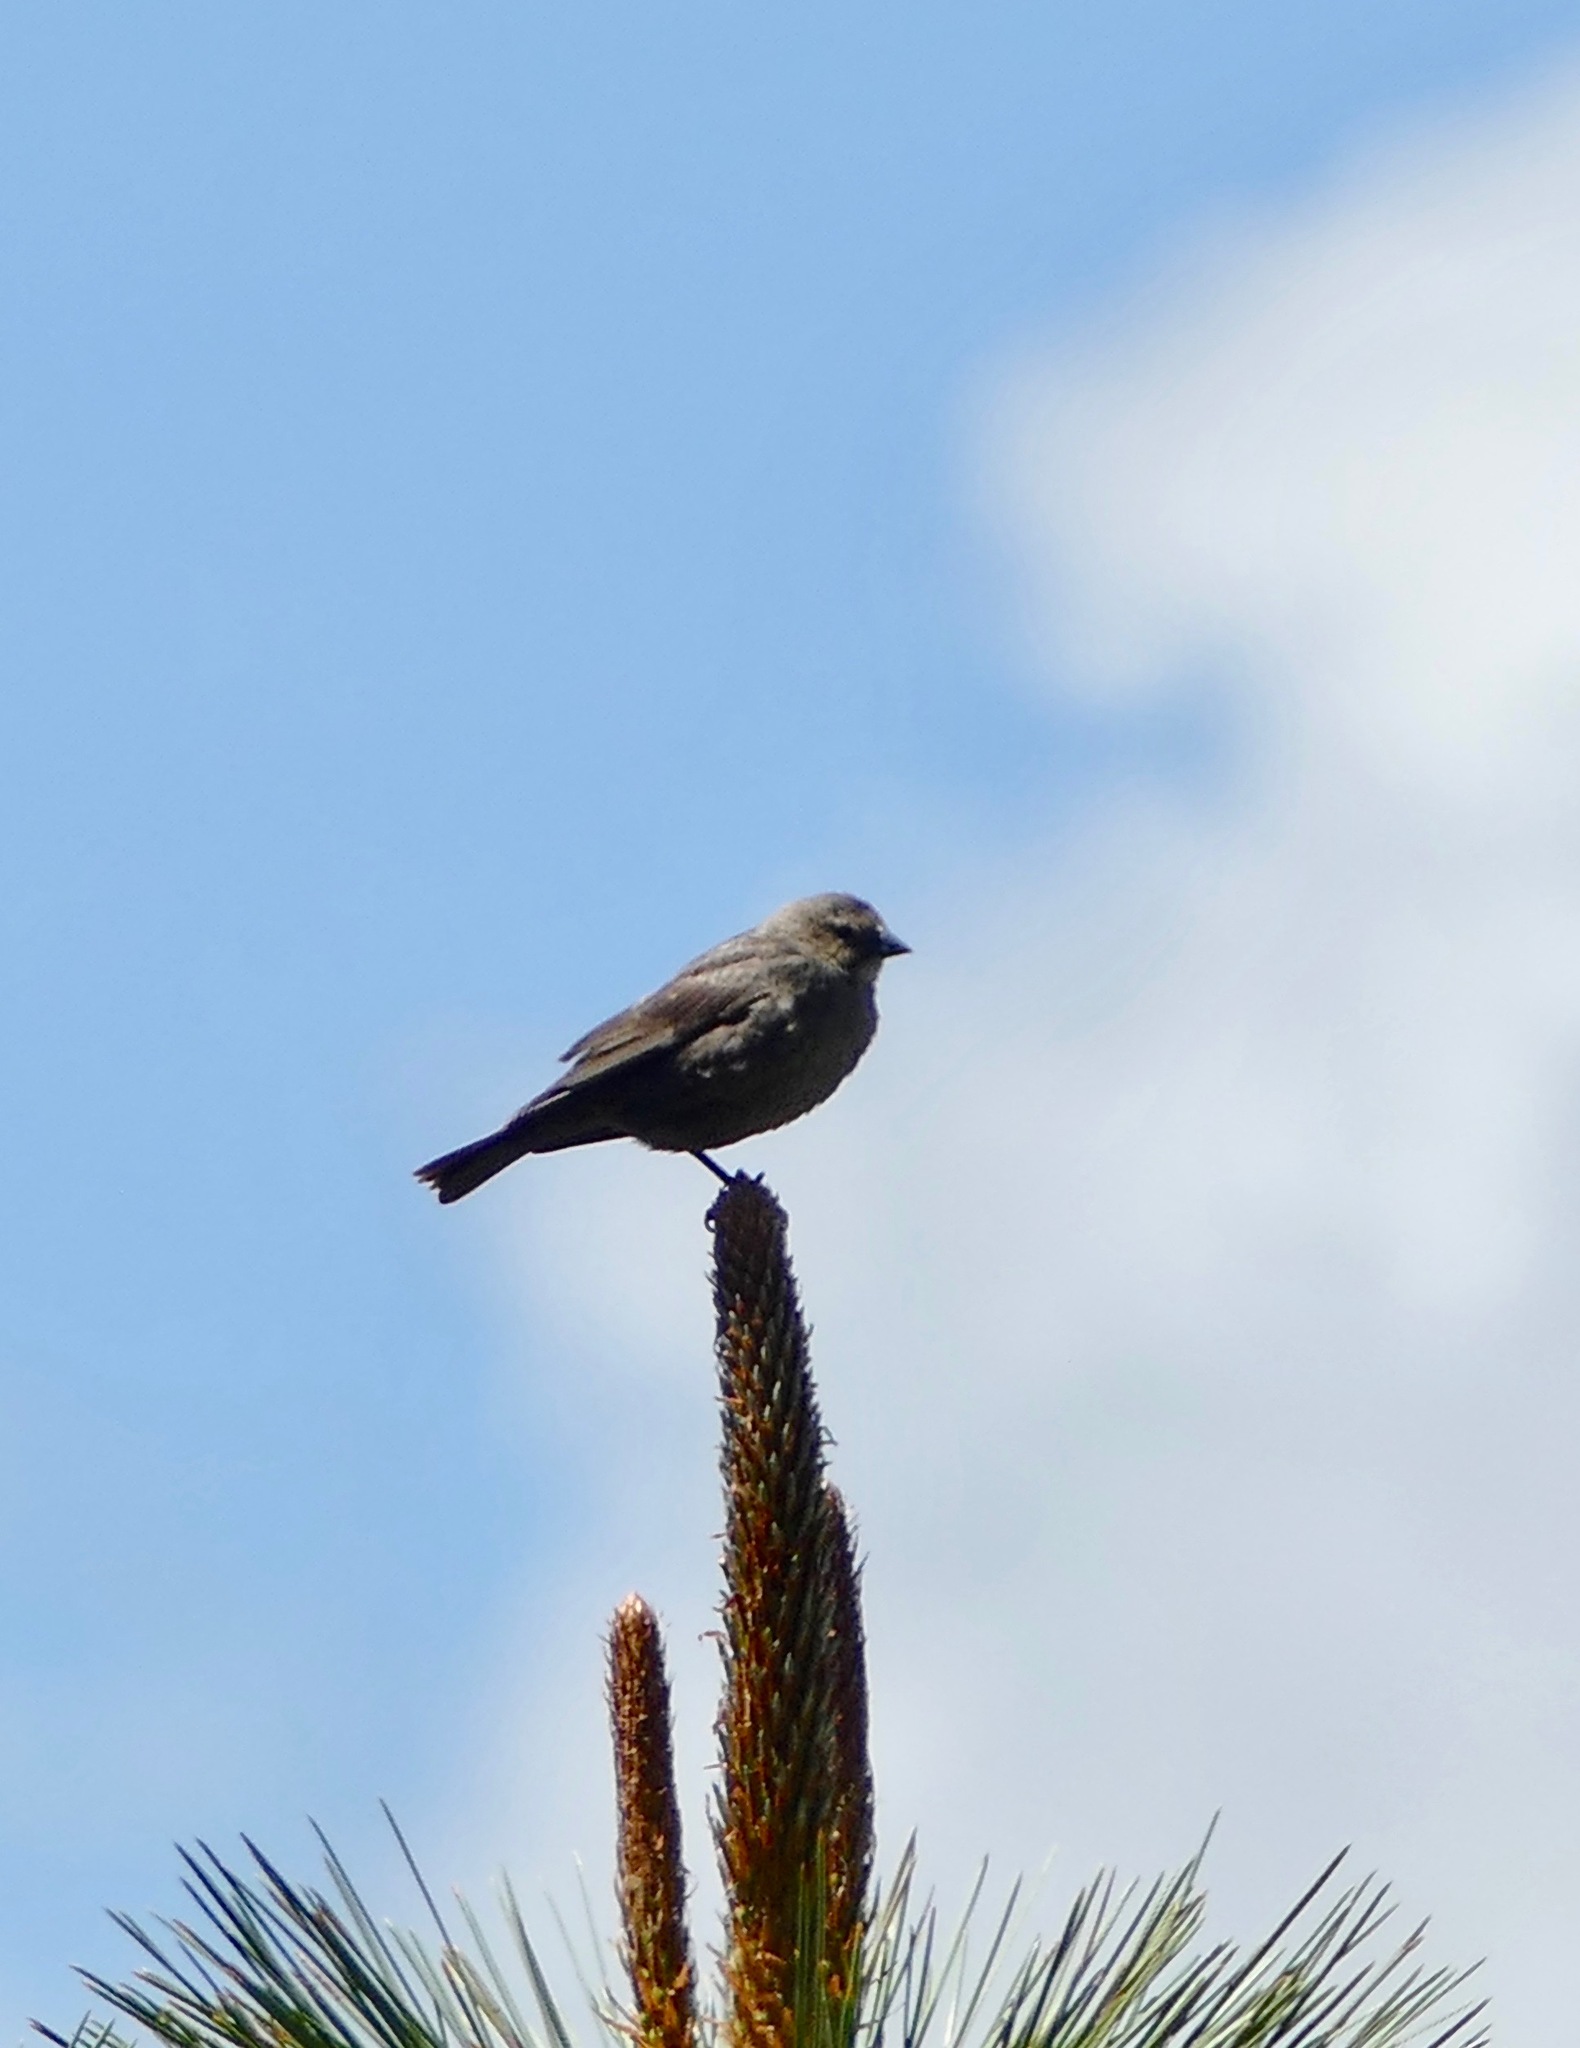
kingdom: Animalia
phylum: Chordata
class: Aves
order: Passeriformes
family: Icteridae
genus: Molothrus
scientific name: Molothrus ater
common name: Brown-headed cowbird
